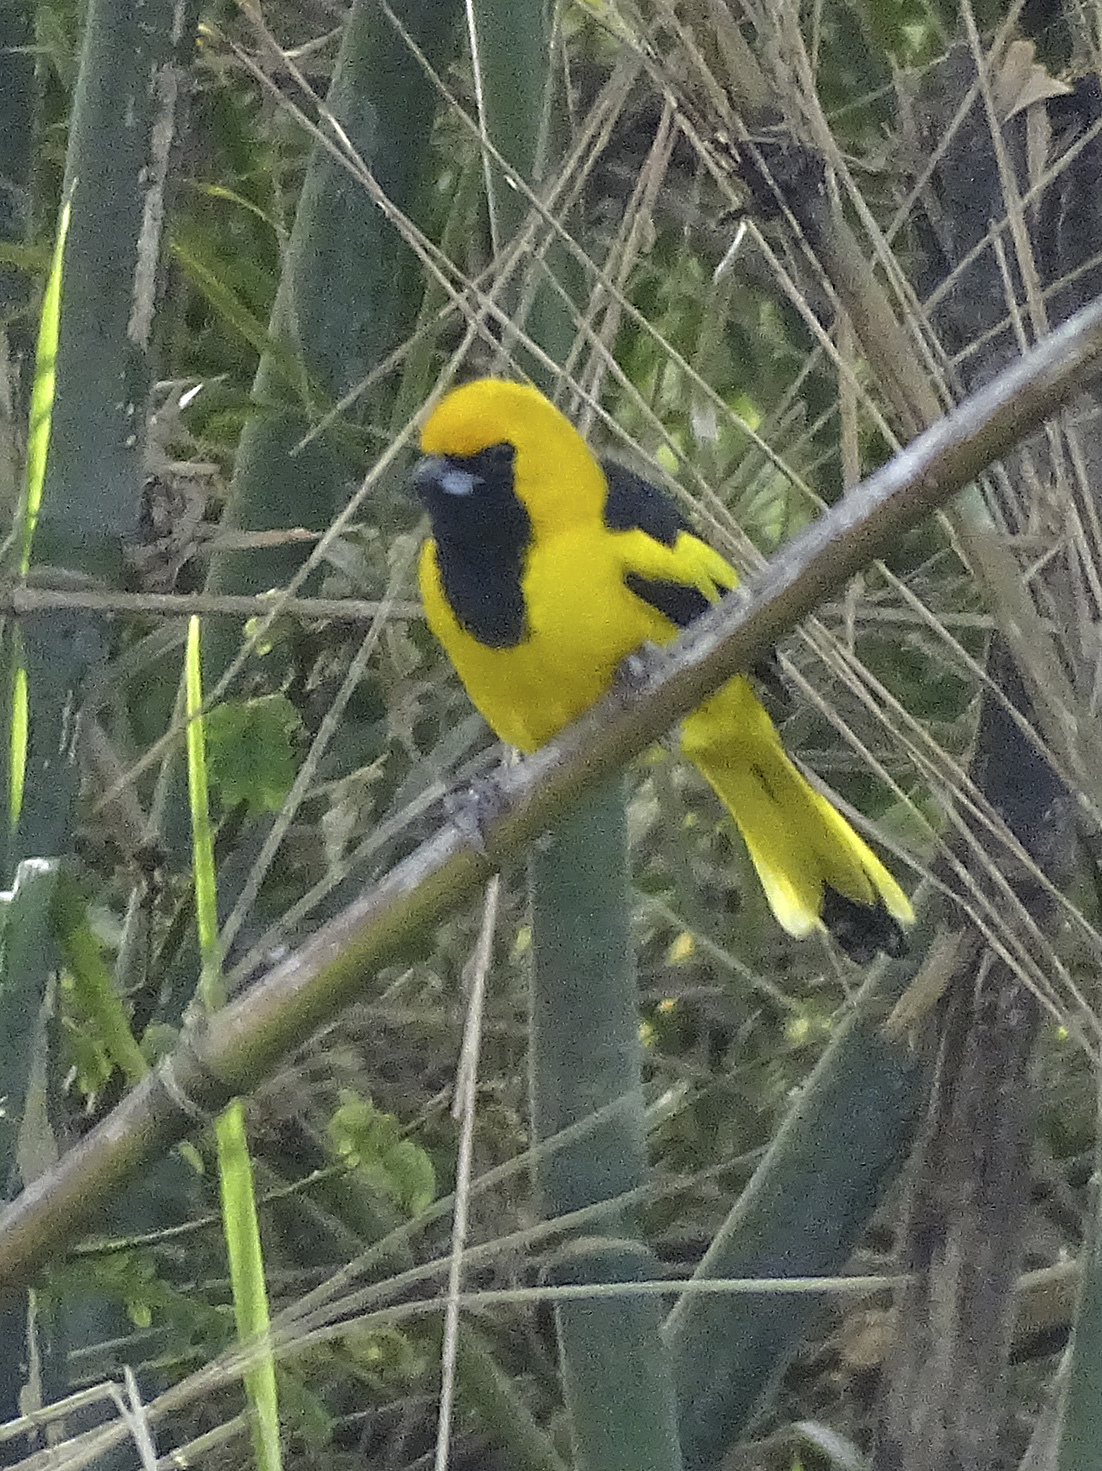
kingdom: Animalia
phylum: Chordata
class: Aves
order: Passeriformes
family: Icteridae
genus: Icterus
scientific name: Icterus mesomelas
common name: Yellow-tailed oriole
